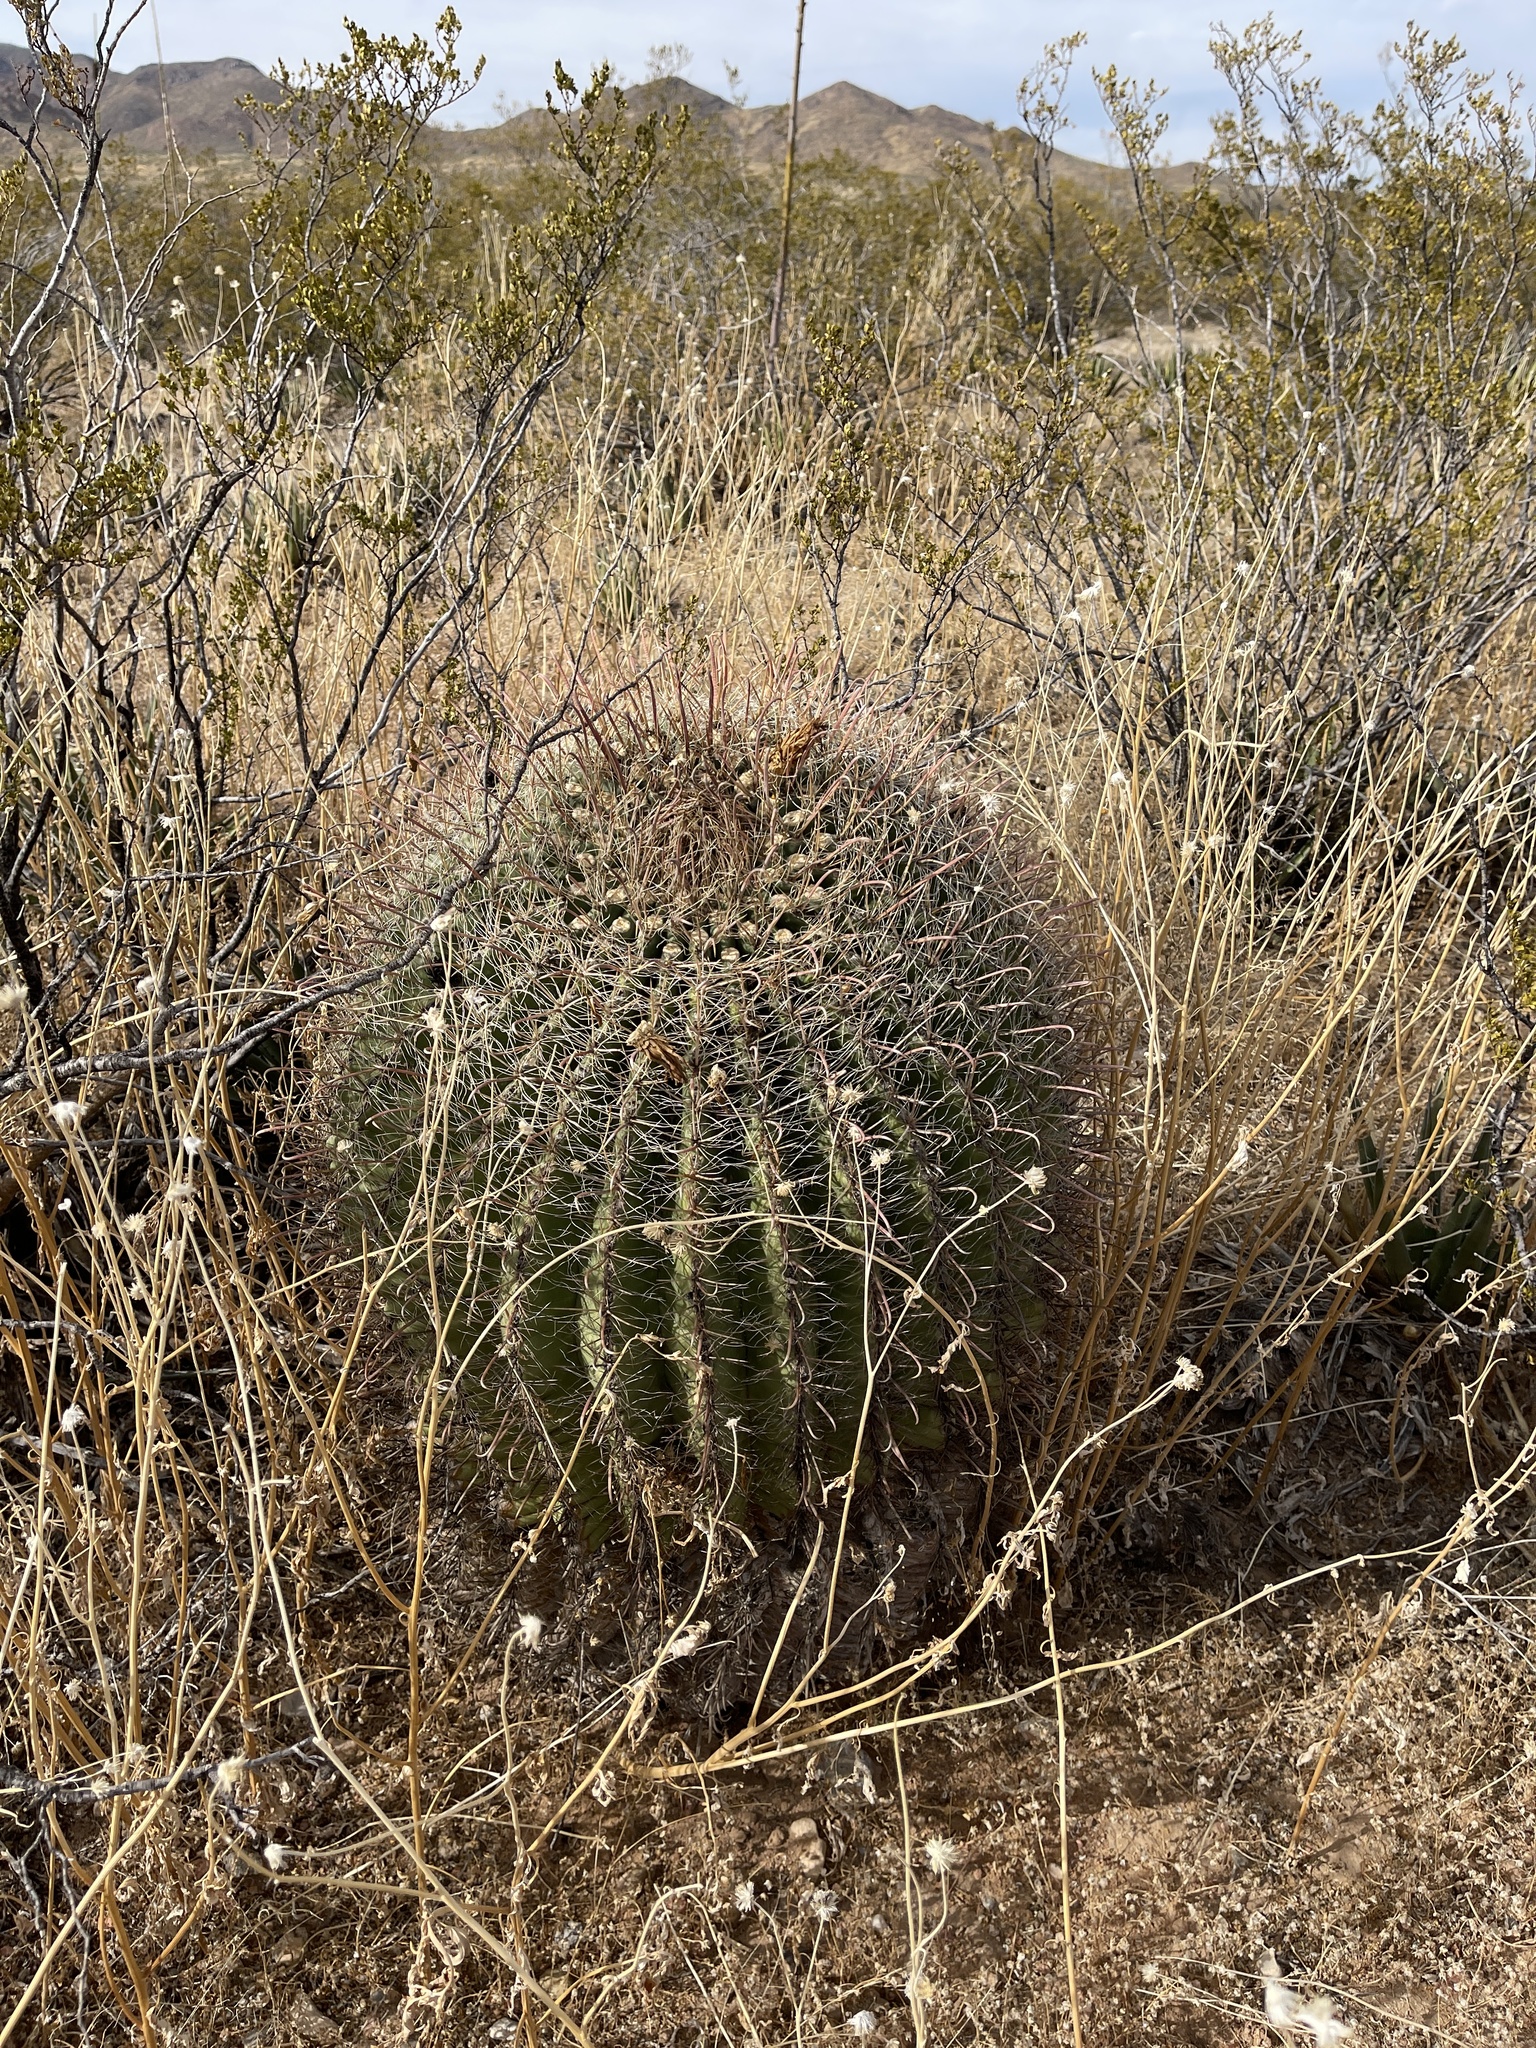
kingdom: Plantae
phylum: Tracheophyta
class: Magnoliopsida
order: Caryophyllales
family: Cactaceae
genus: Ferocactus
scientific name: Ferocactus wislizeni
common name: Candy barrel cactus
